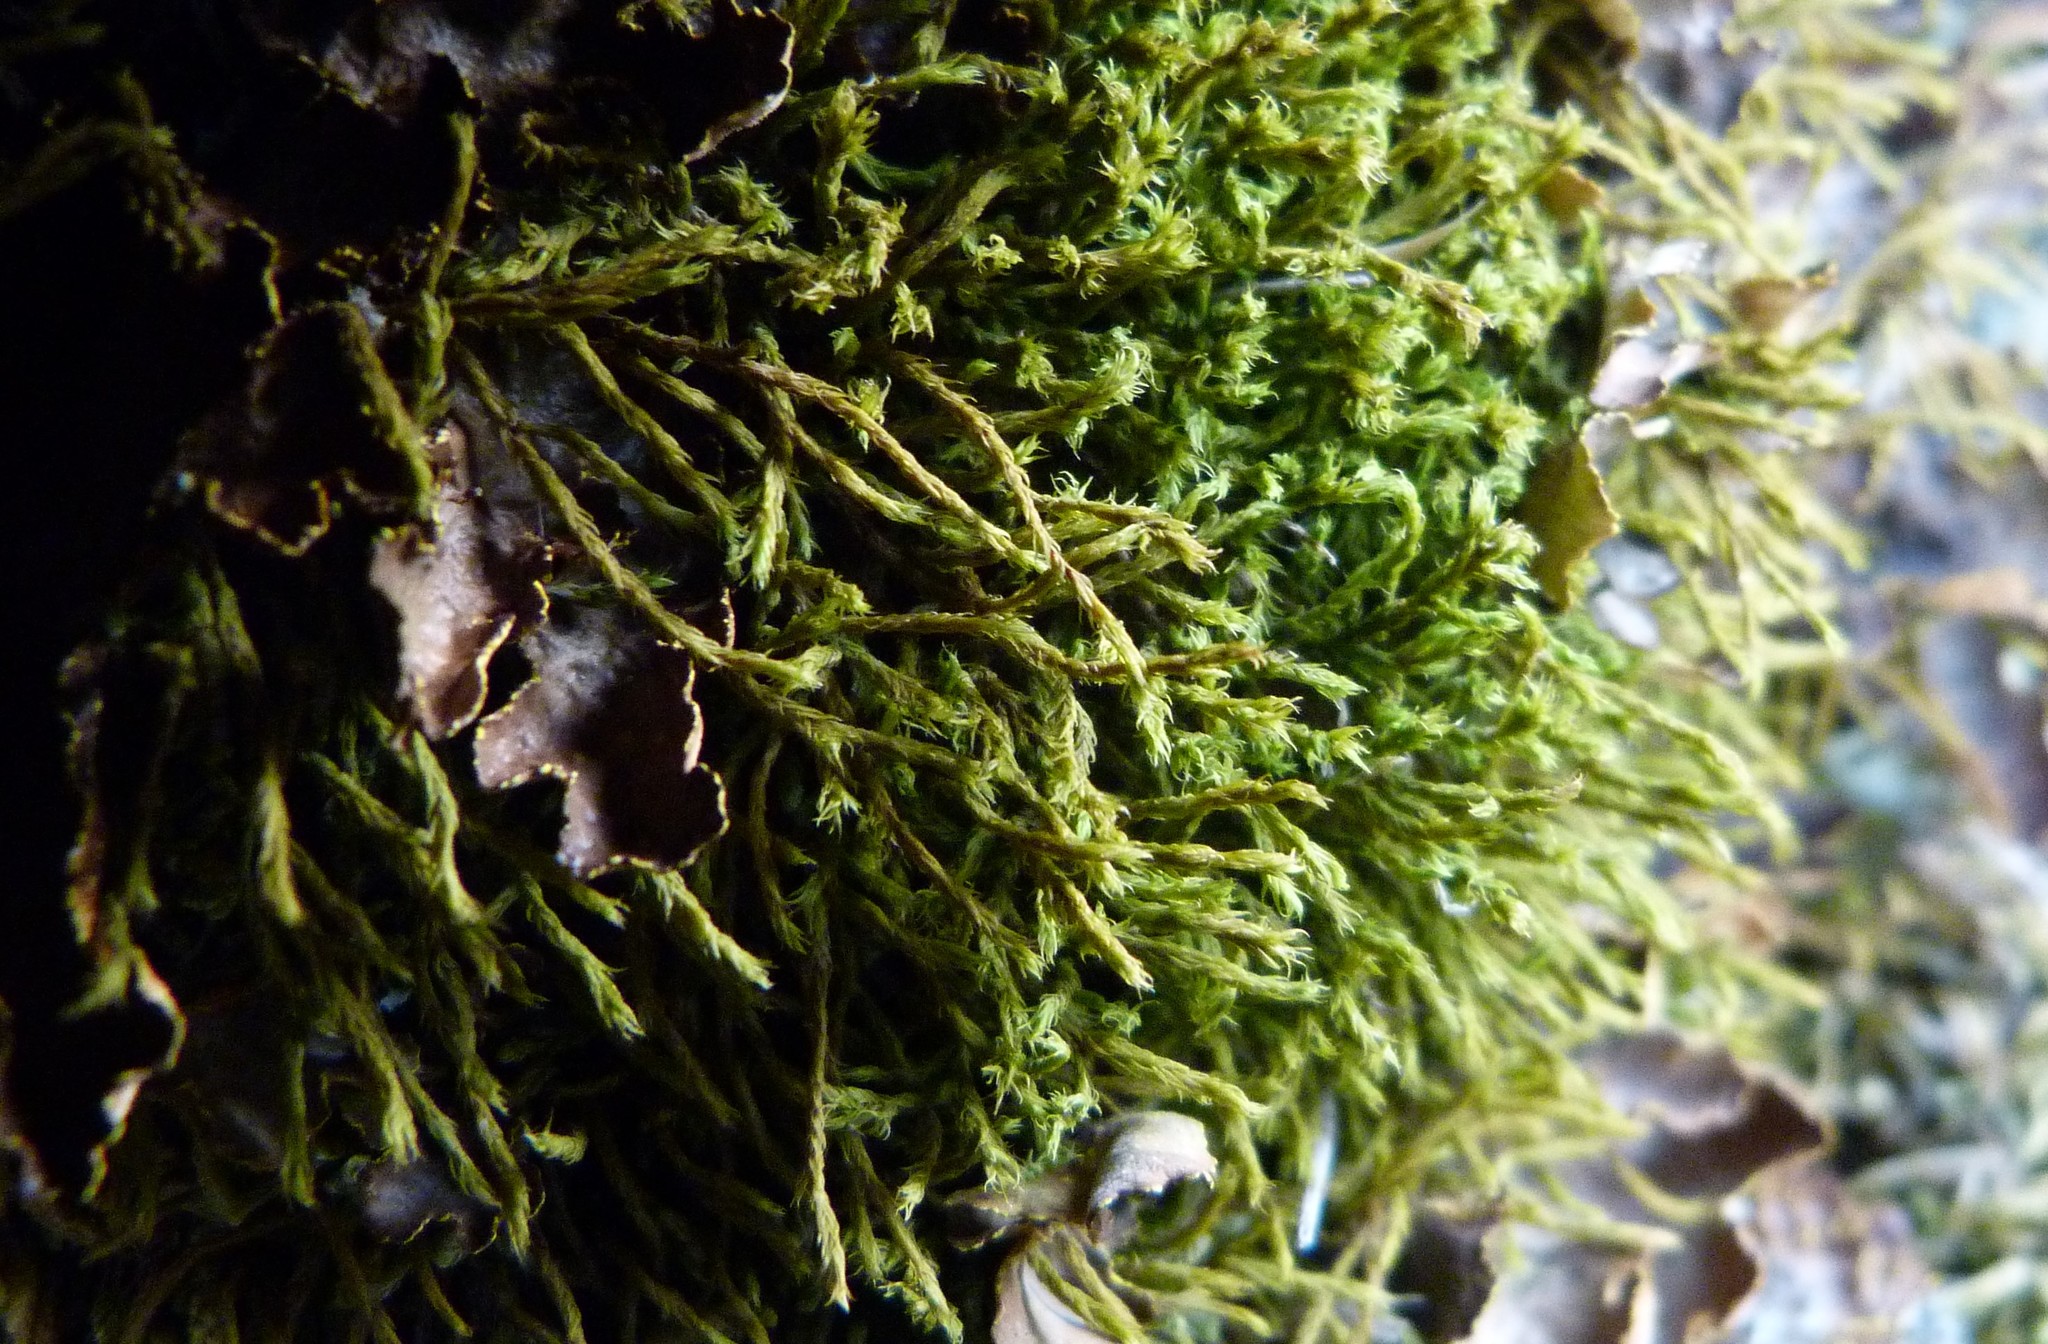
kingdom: Plantae
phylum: Bryophyta
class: Bryopsida
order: Pottiales
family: Pottiaceae
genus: Triquetrella
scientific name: Triquetrella papillata
